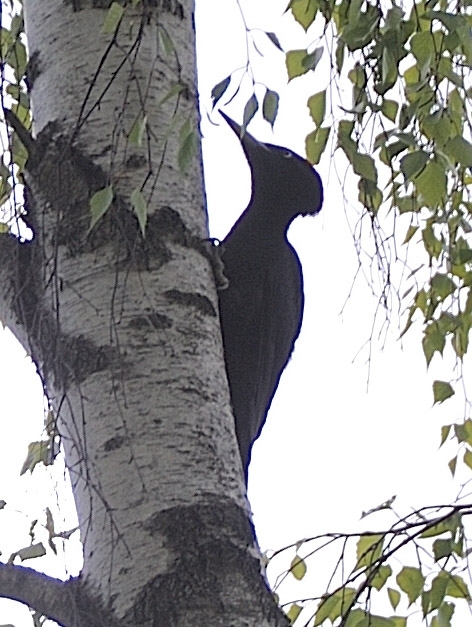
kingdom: Animalia
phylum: Chordata
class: Aves
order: Piciformes
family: Picidae
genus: Dryocopus
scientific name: Dryocopus martius
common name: Black woodpecker
